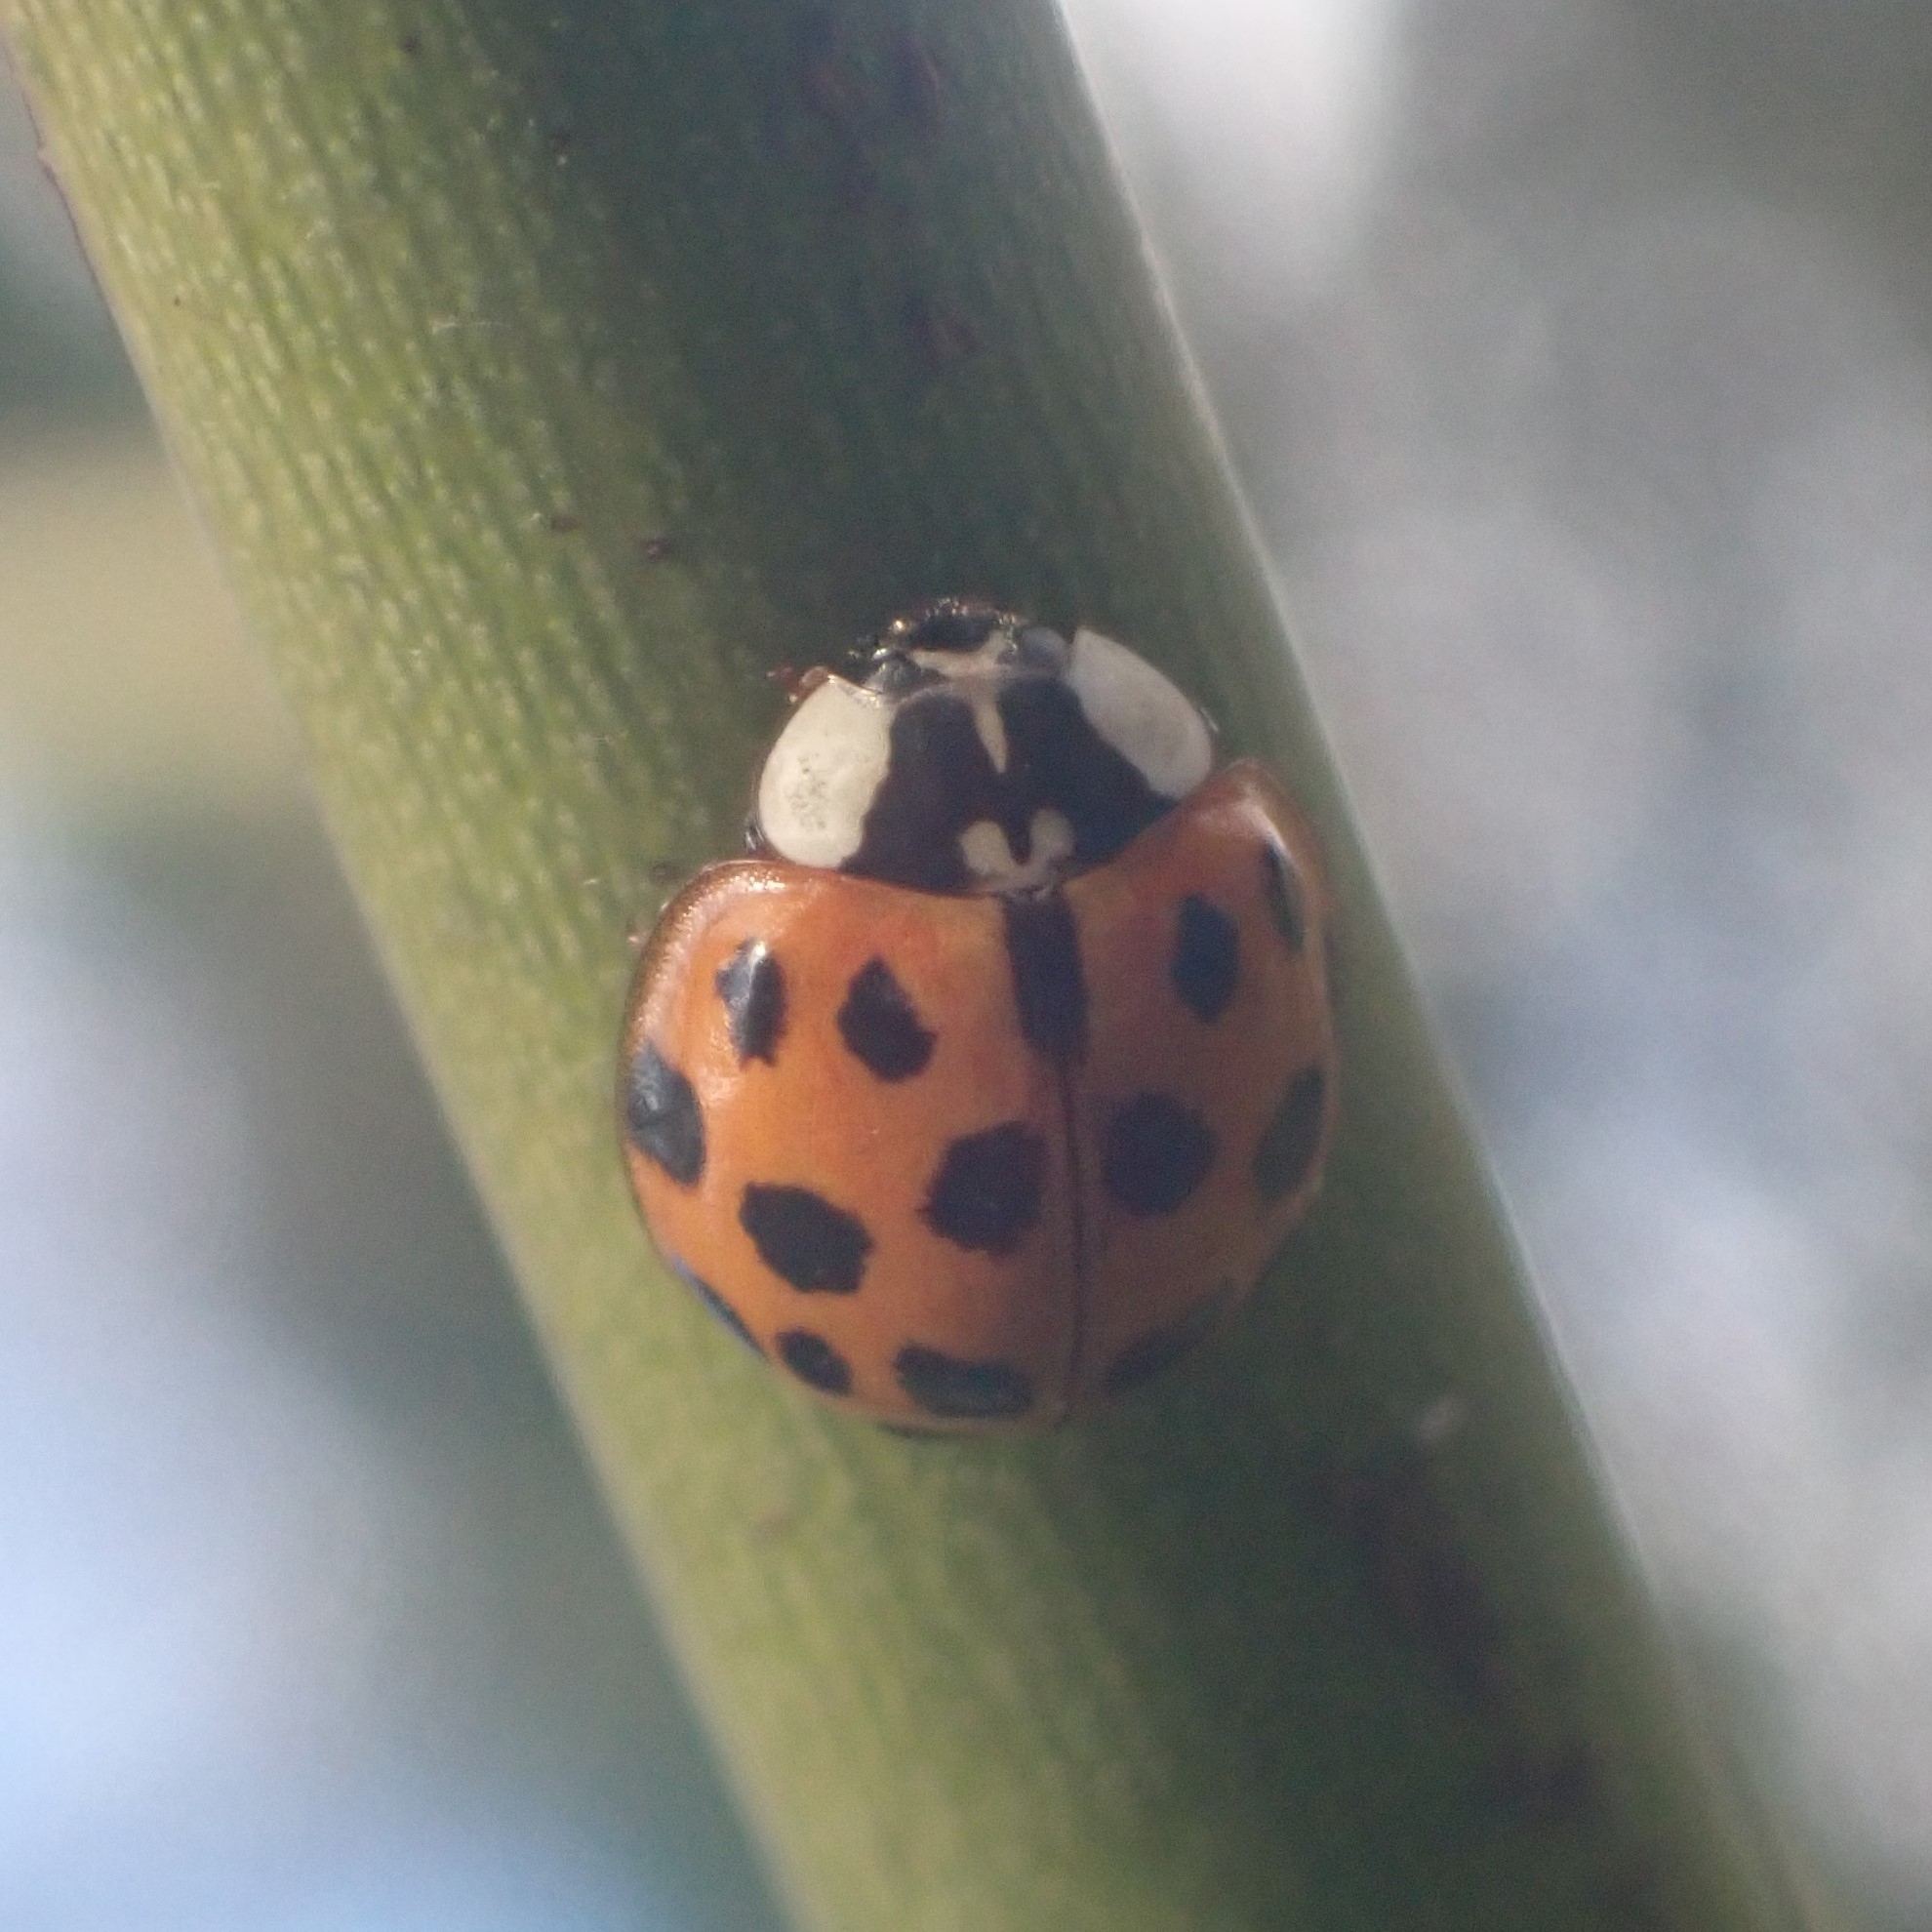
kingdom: Animalia
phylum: Arthropoda
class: Insecta
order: Coleoptera
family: Coccinellidae
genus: Harmonia
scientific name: Harmonia axyridis
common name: Harlequin ladybird
